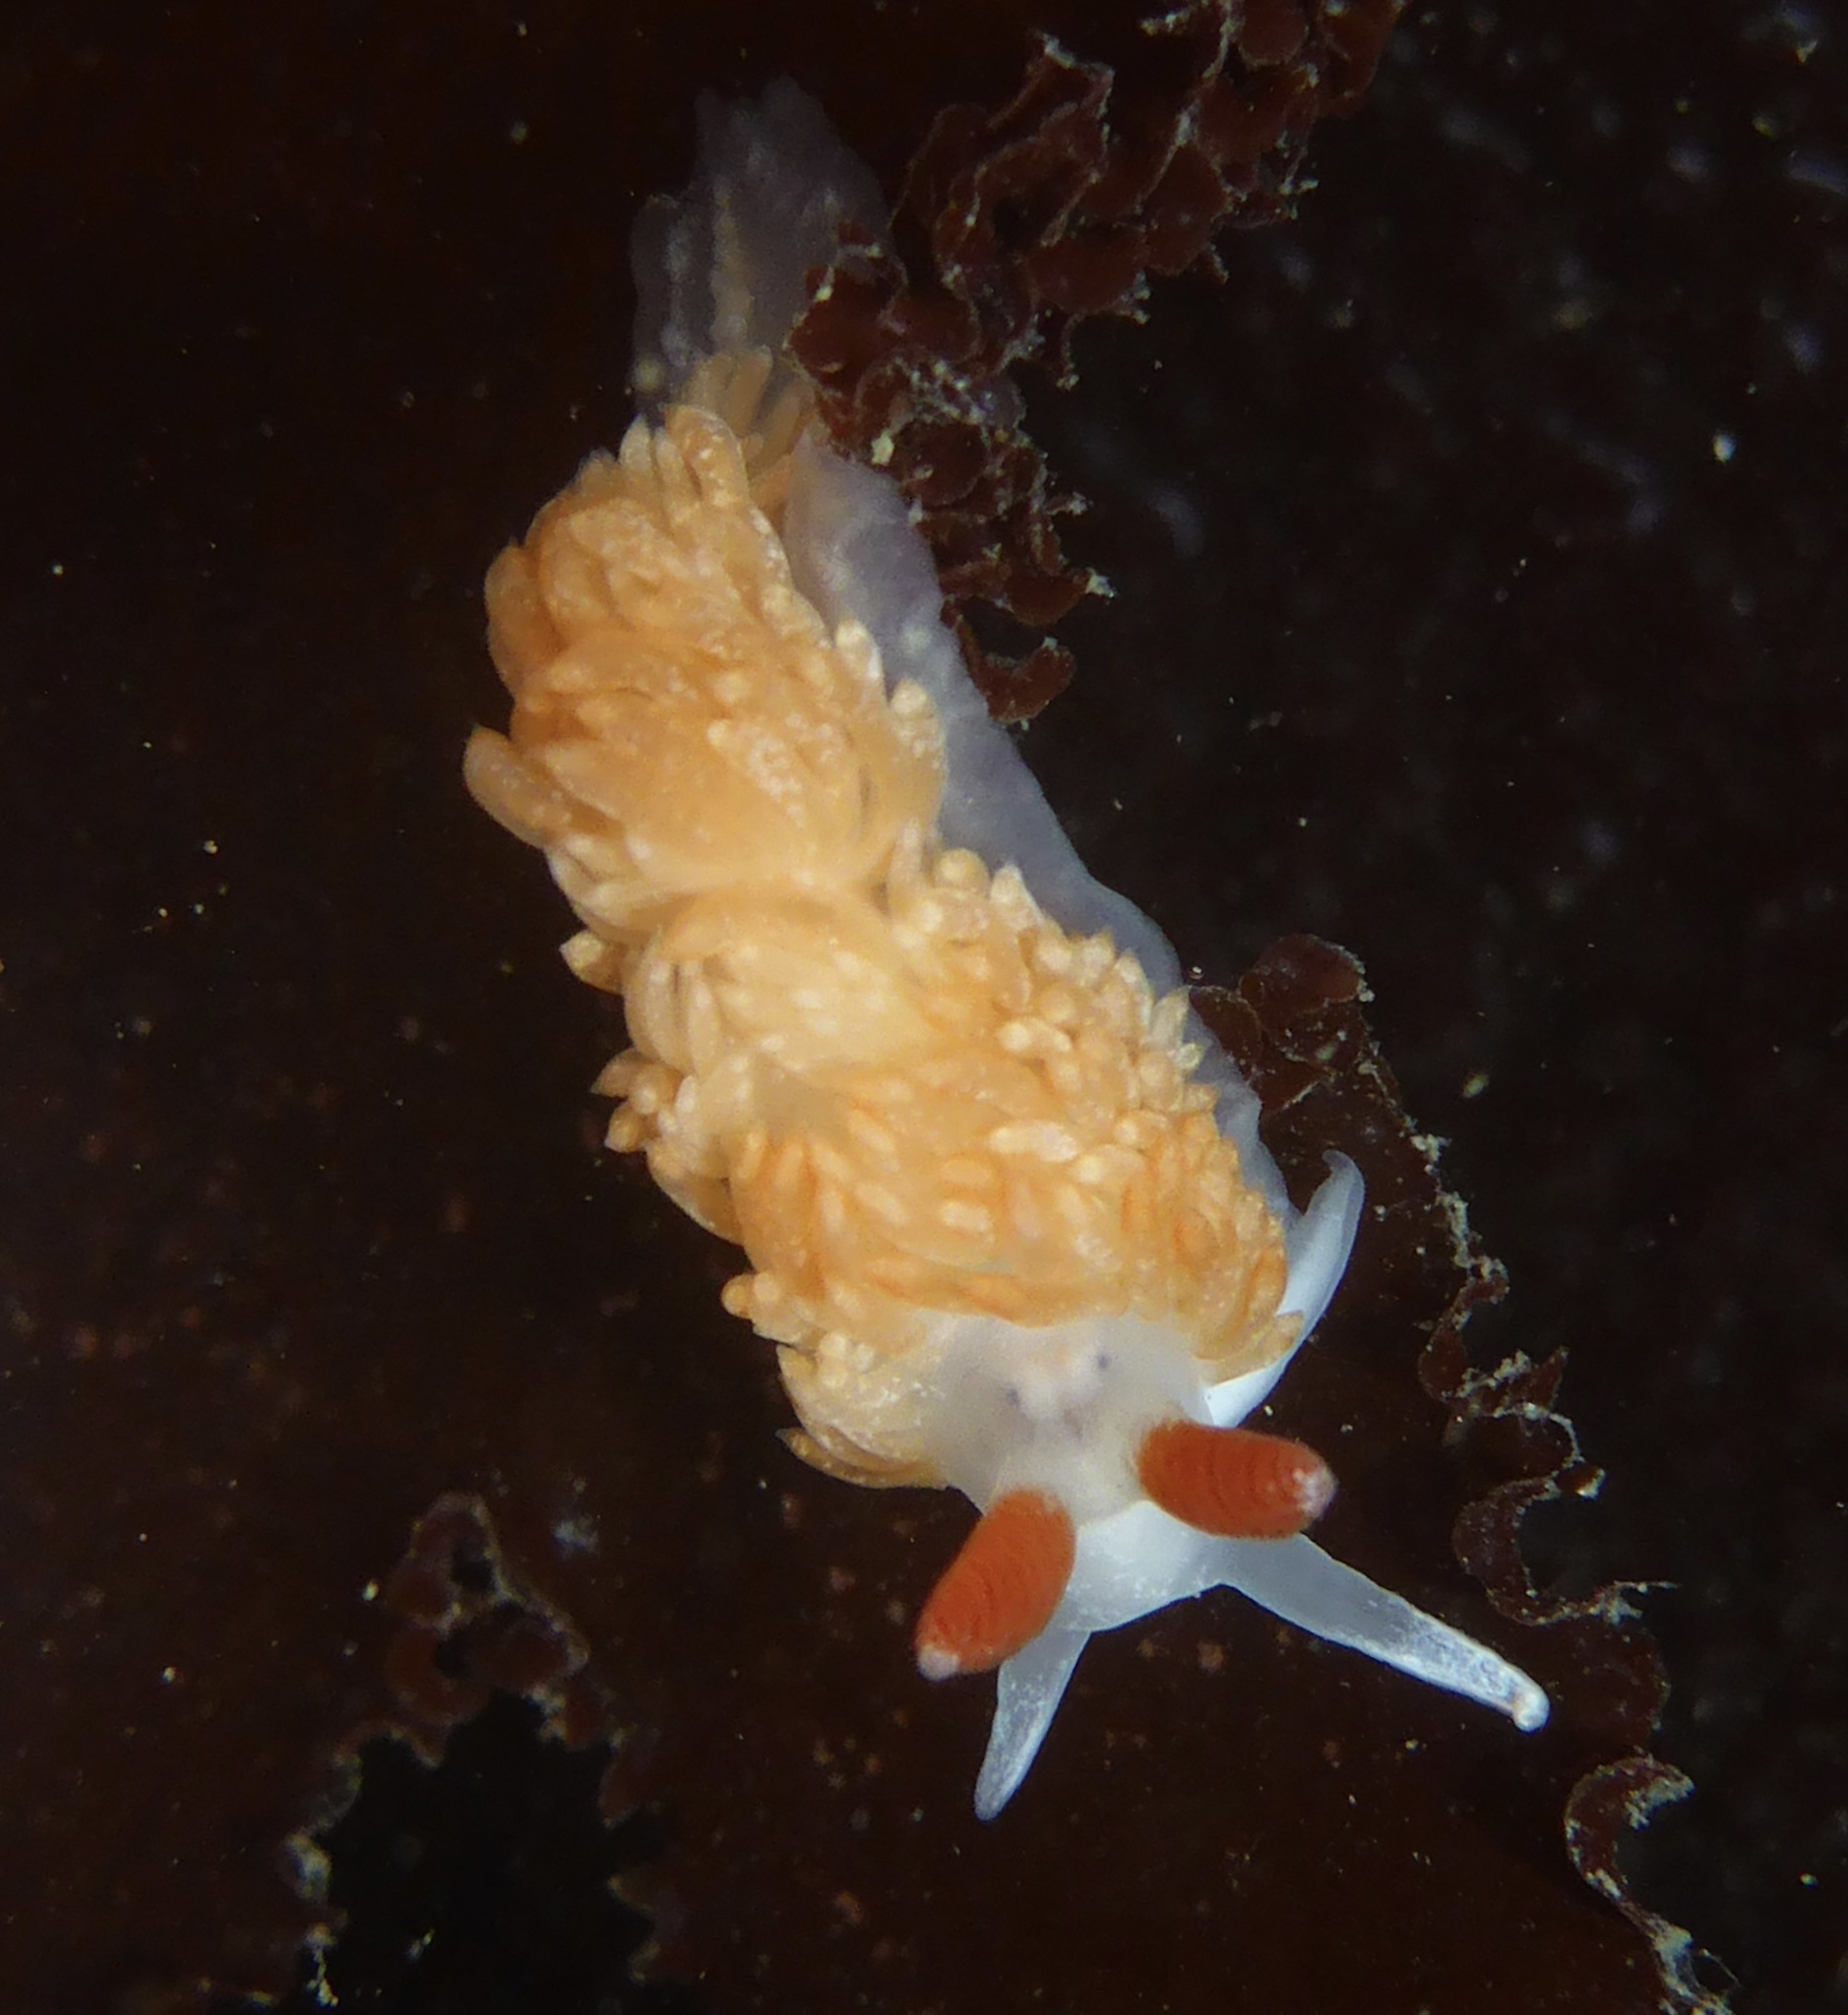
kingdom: Animalia
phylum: Mollusca
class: Gastropoda
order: Nudibranchia
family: Aeolidiidae
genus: Anteaeolidiella
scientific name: Anteaeolidiella oliviae
